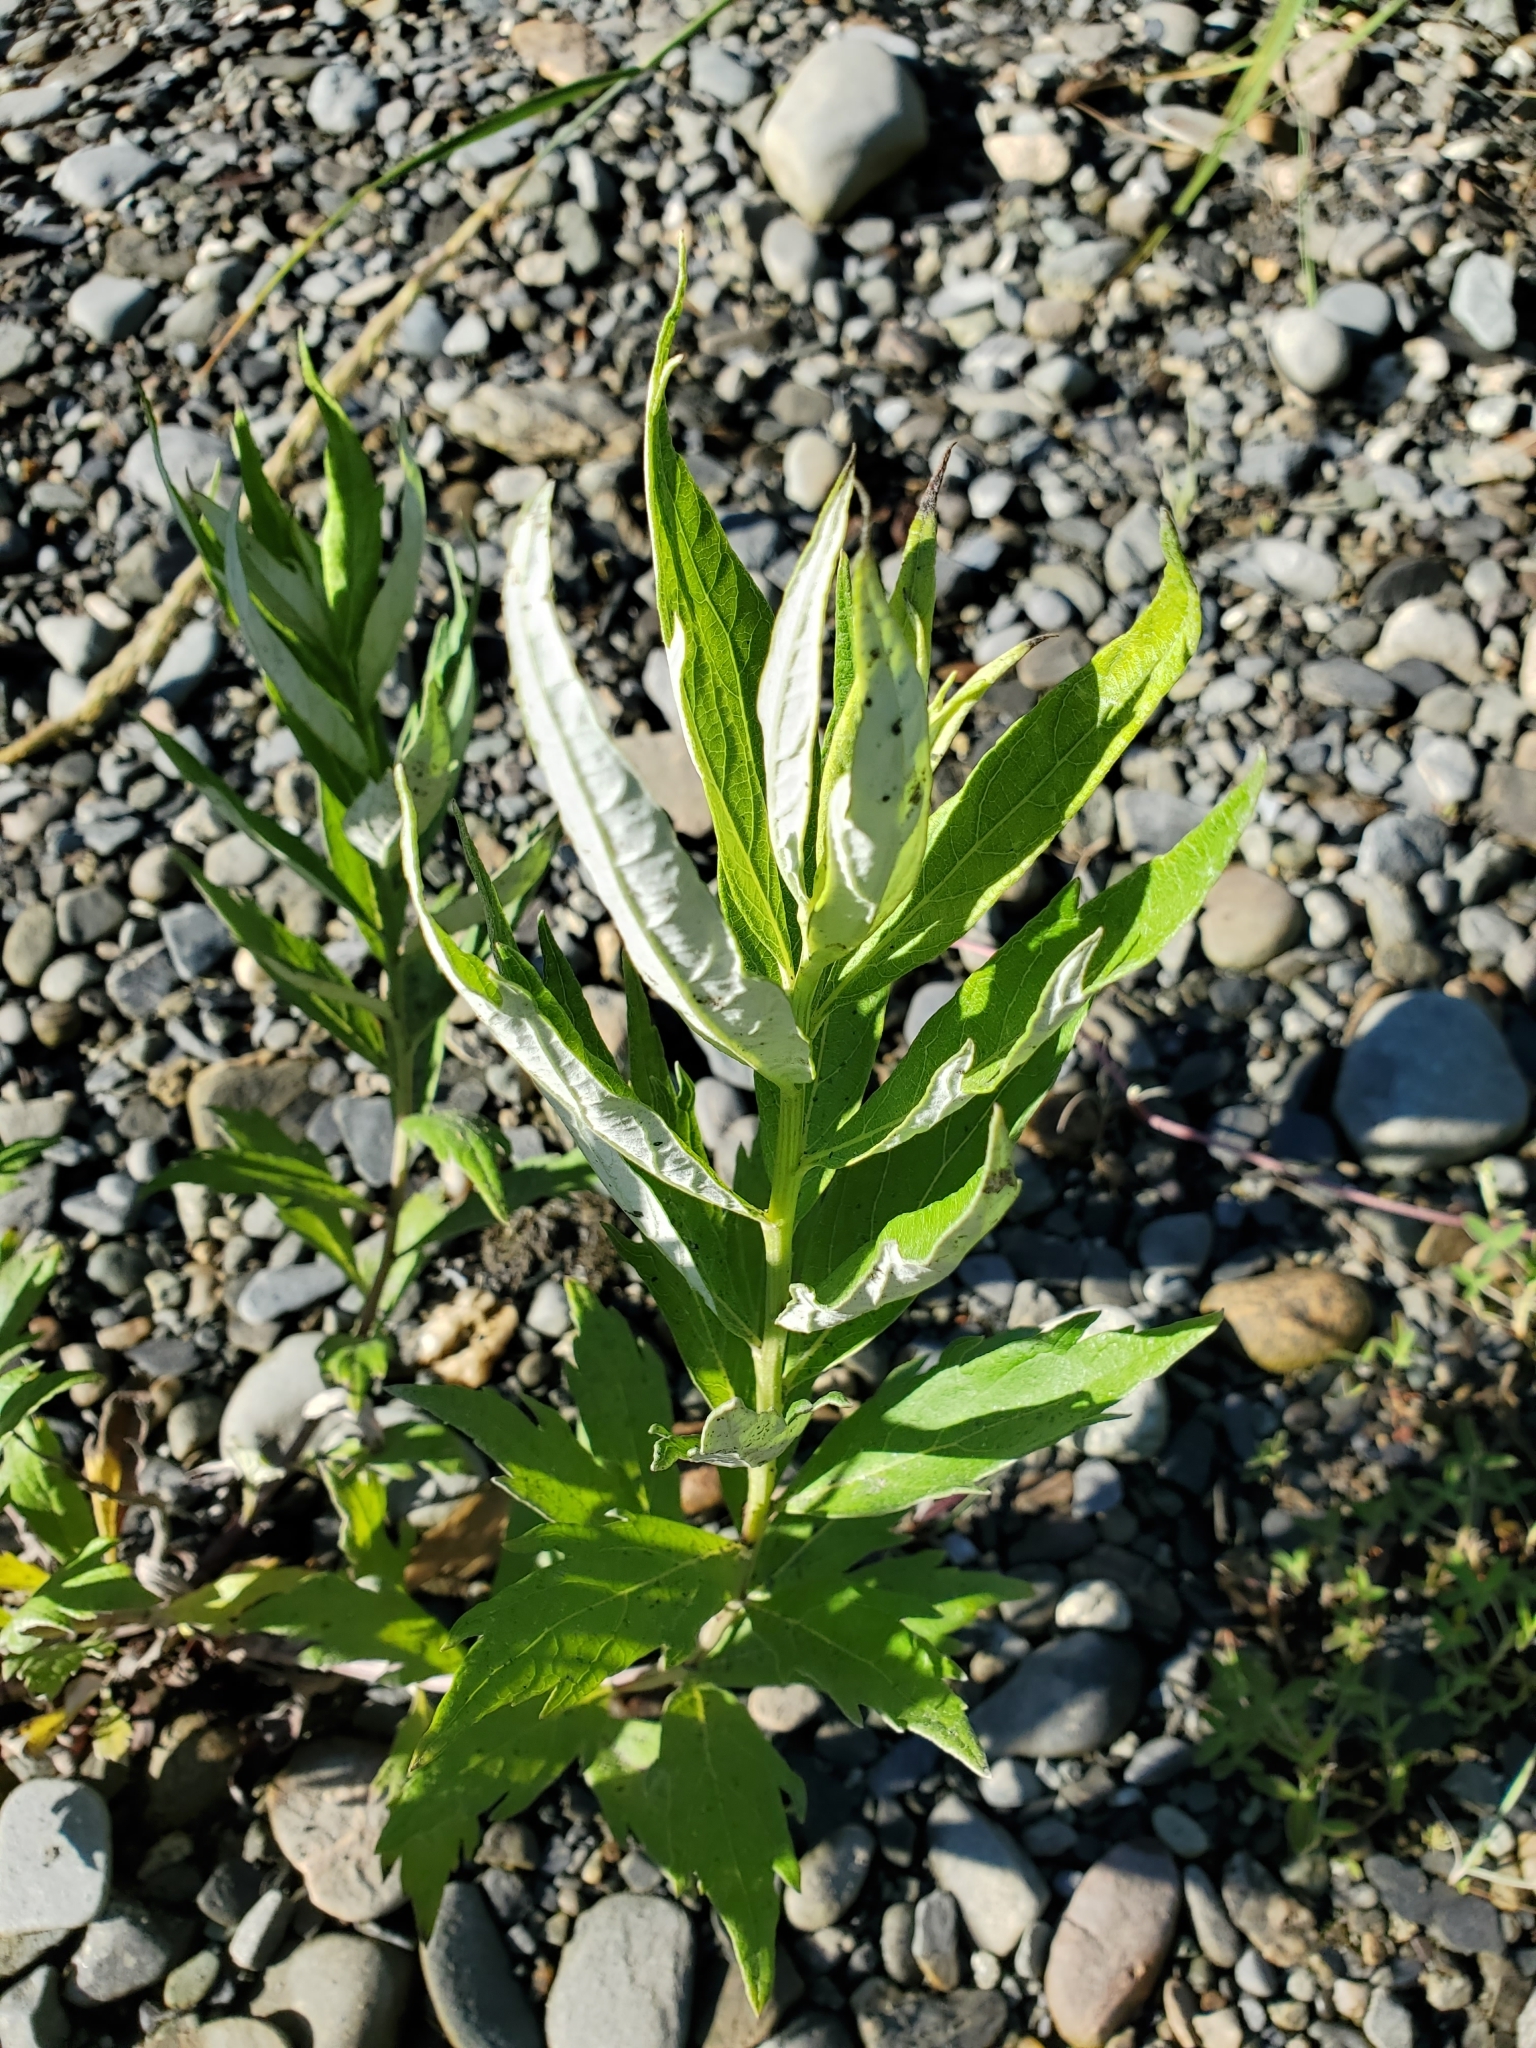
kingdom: Plantae
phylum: Tracheophyta
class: Magnoliopsida
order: Asterales
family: Asteraceae
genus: Artemisia
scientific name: Artemisia suksdorfii
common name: Suksdorf sagewort
